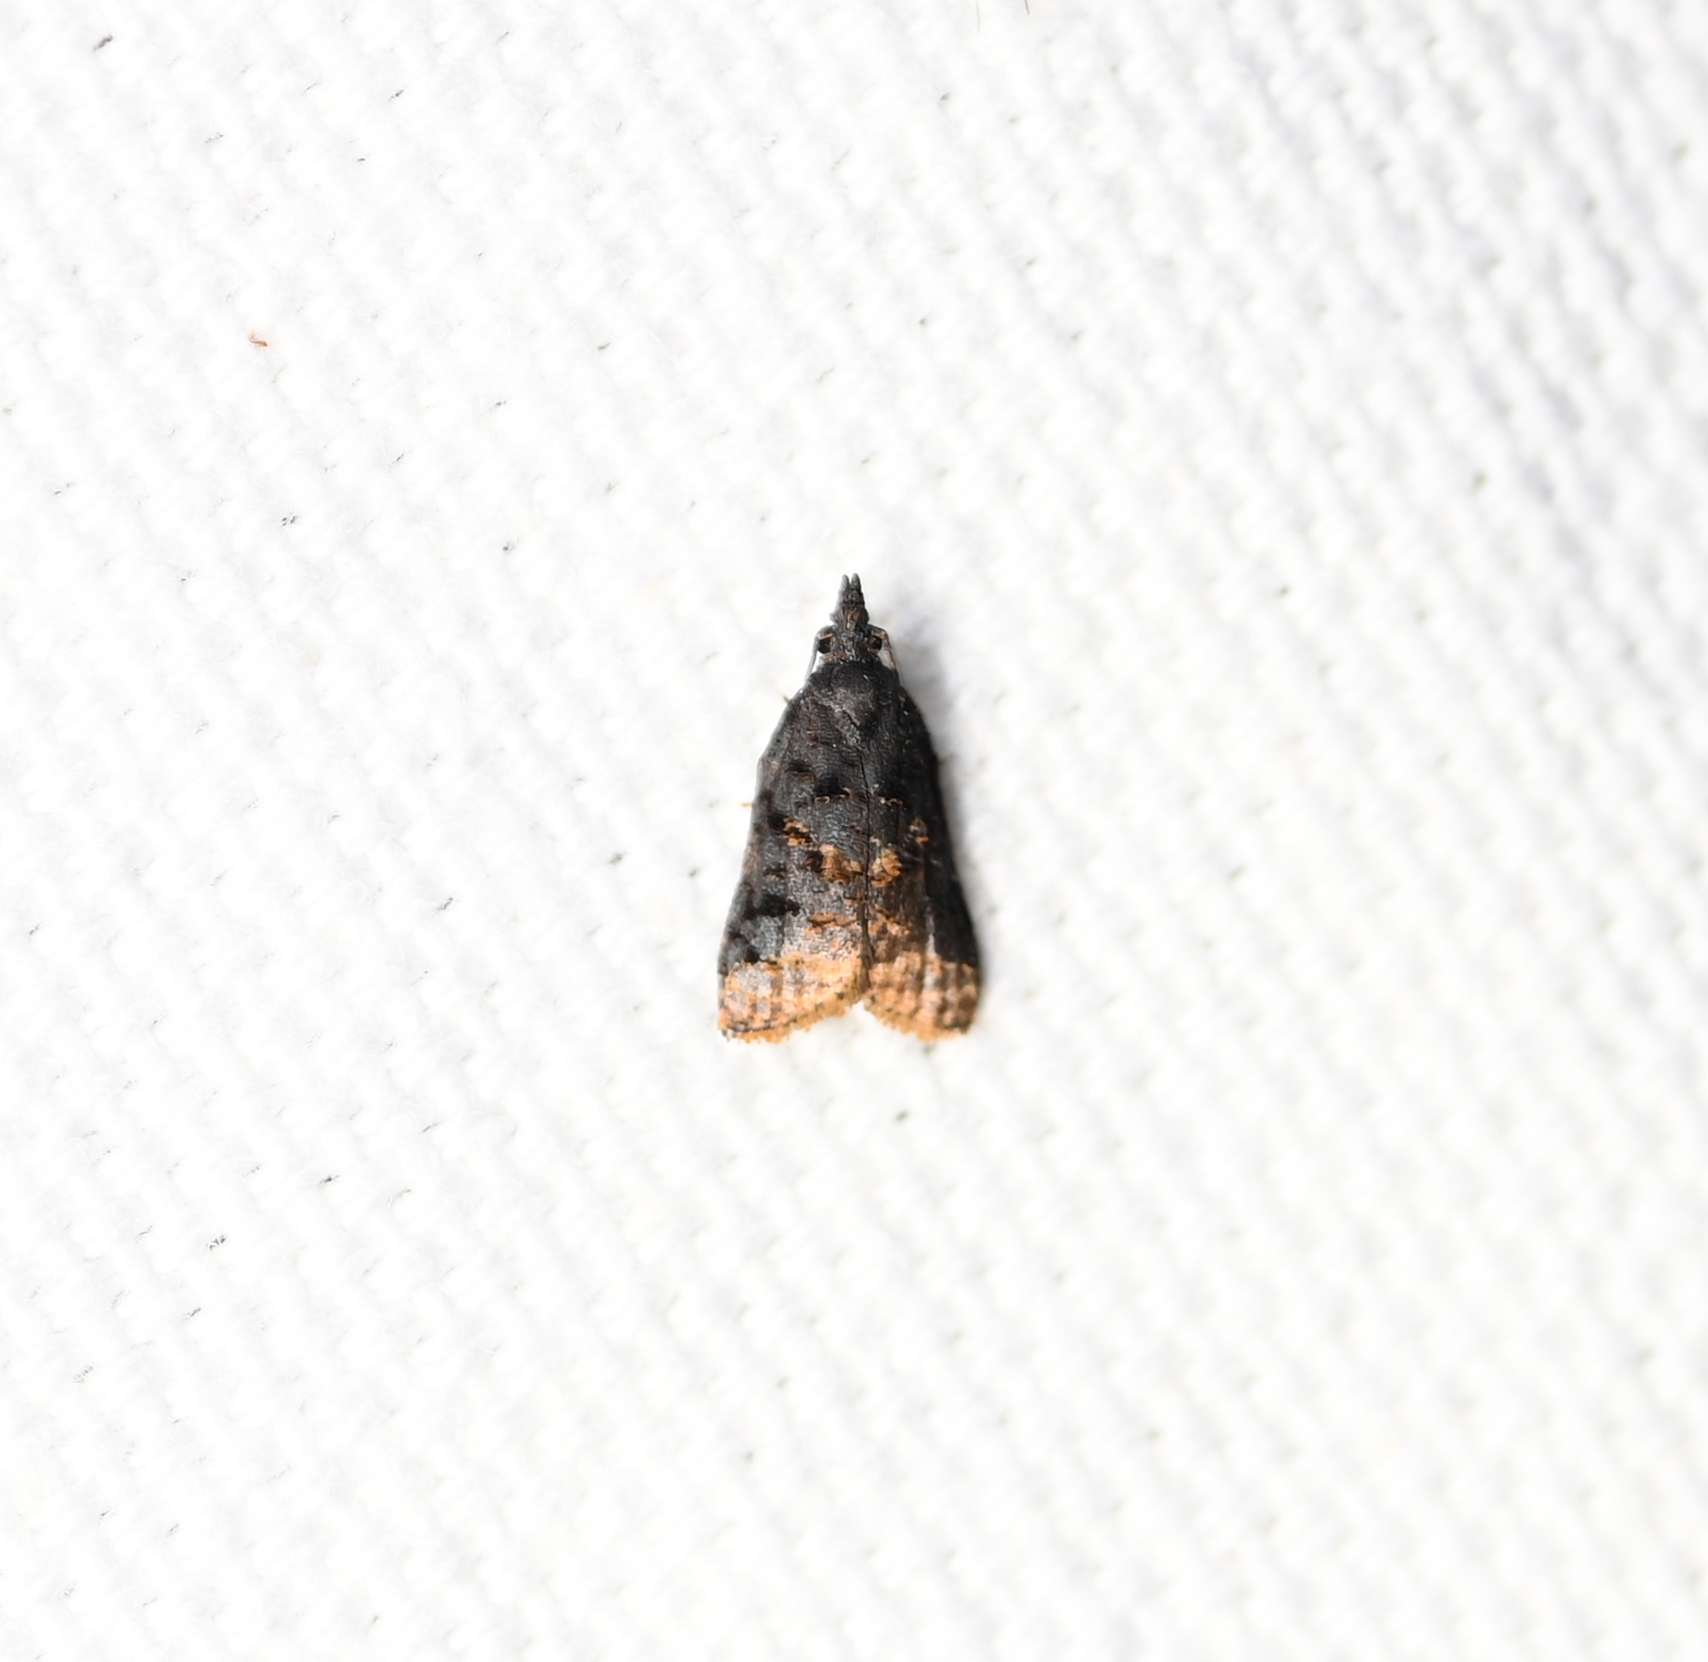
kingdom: Animalia
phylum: Arthropoda
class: Insecta
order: Lepidoptera
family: Tortricidae
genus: Platynota
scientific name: Platynota semiustana
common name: Singed platynota
